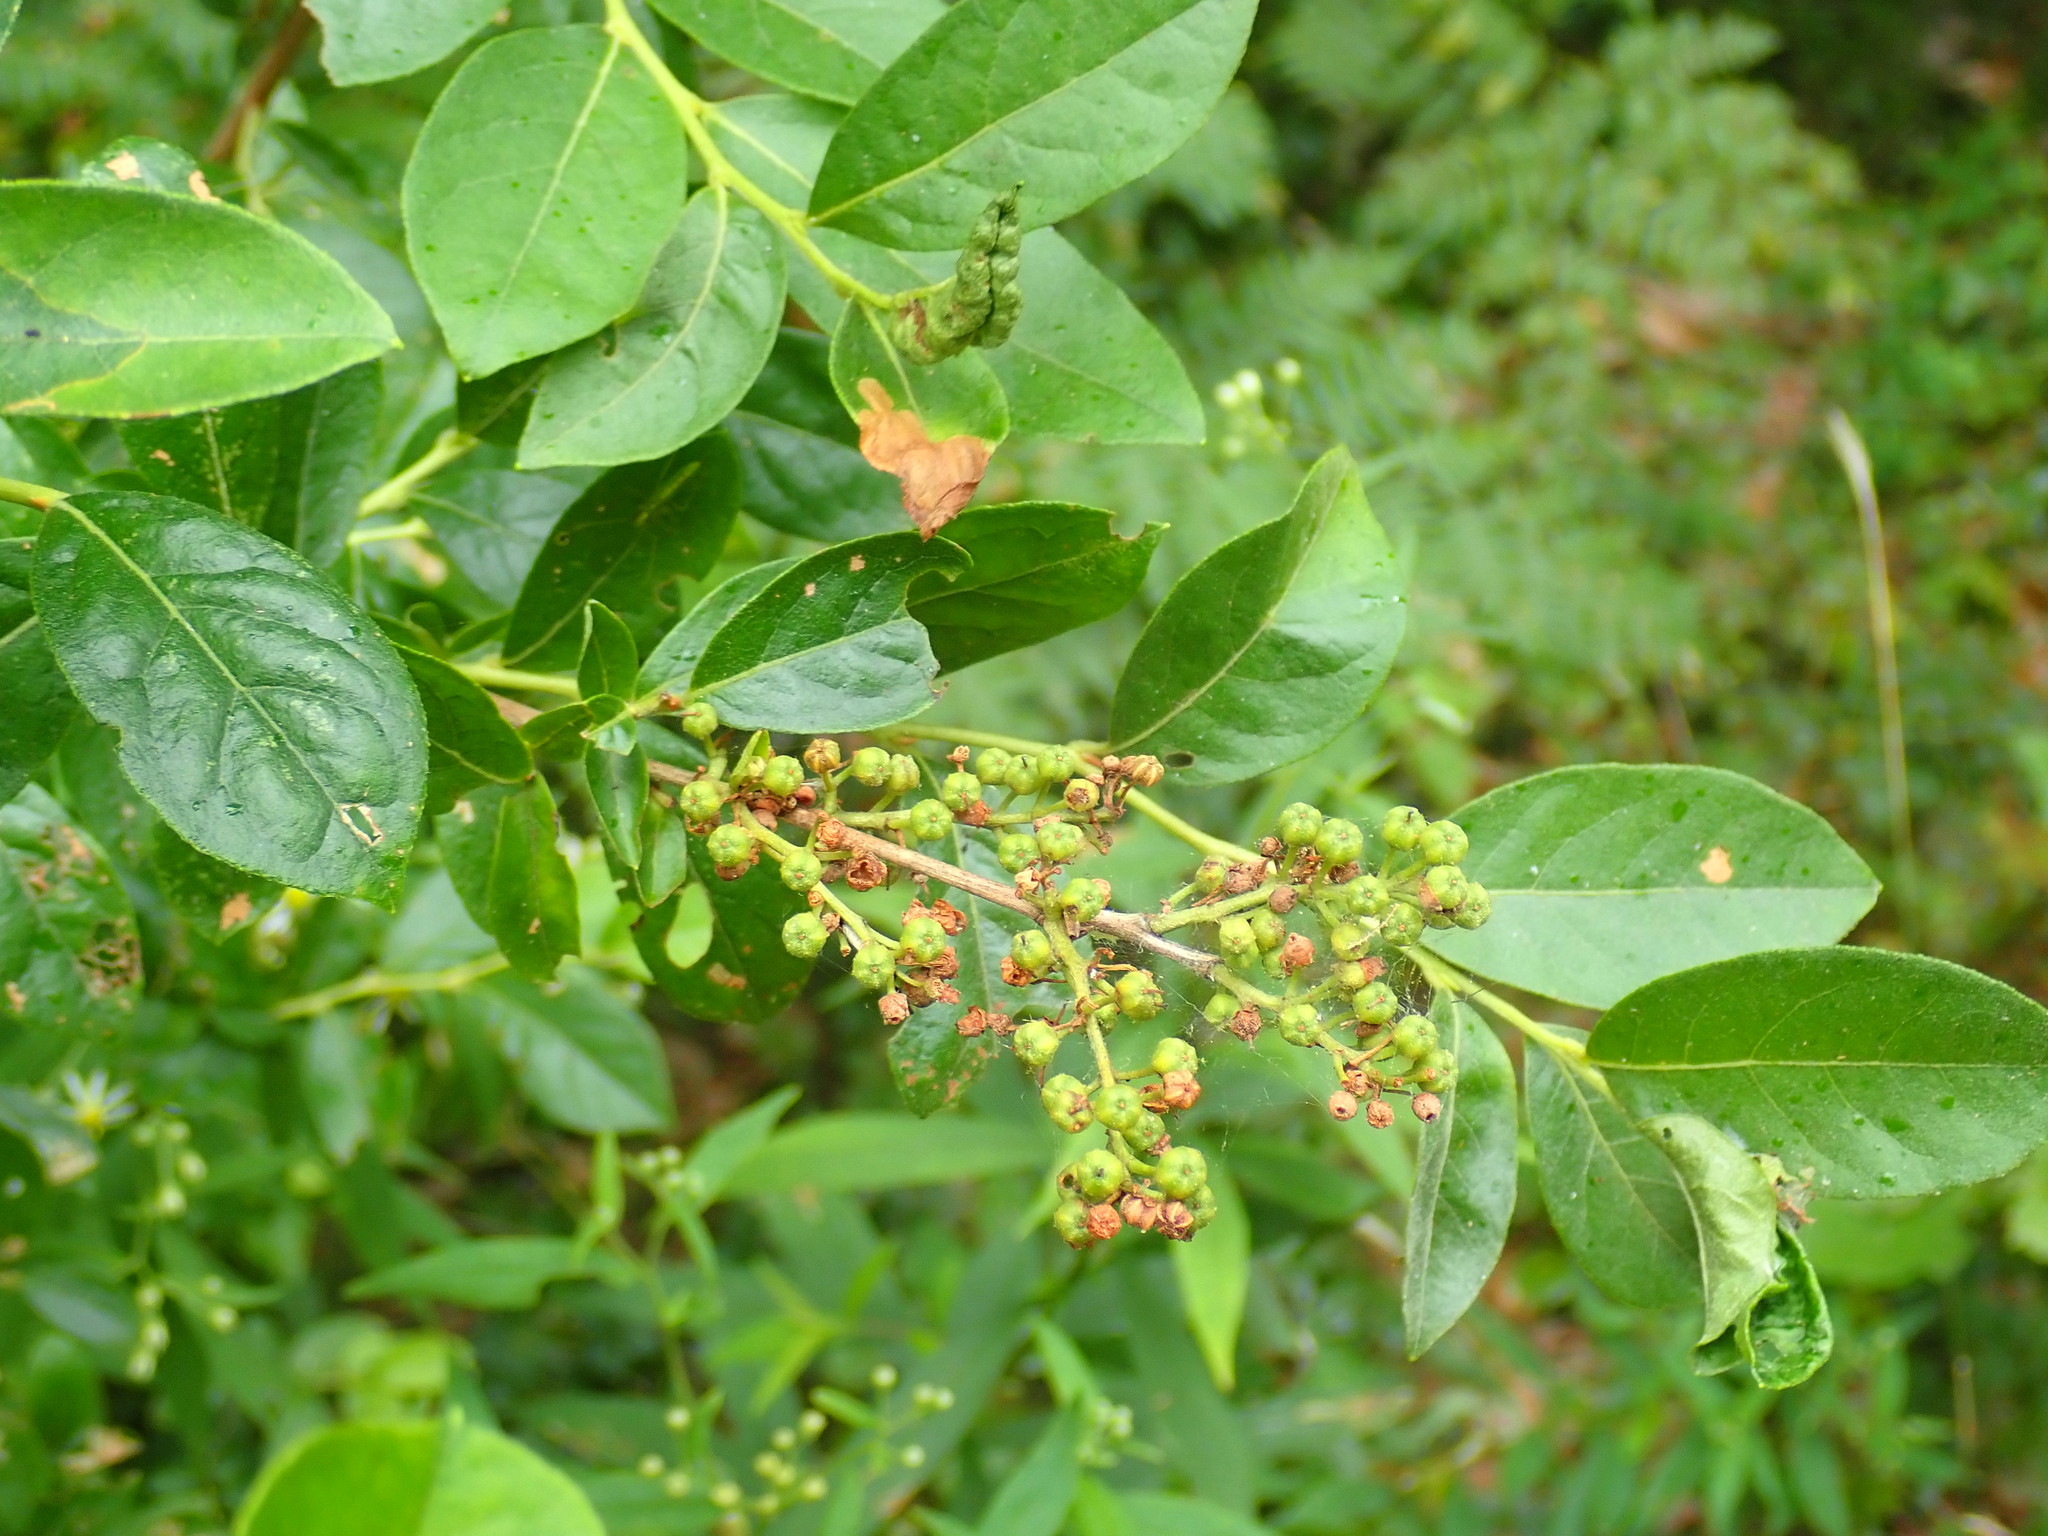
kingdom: Plantae
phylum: Tracheophyta
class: Magnoliopsida
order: Ericales
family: Ericaceae
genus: Lyonia
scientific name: Lyonia ligustrina
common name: Maleberry
